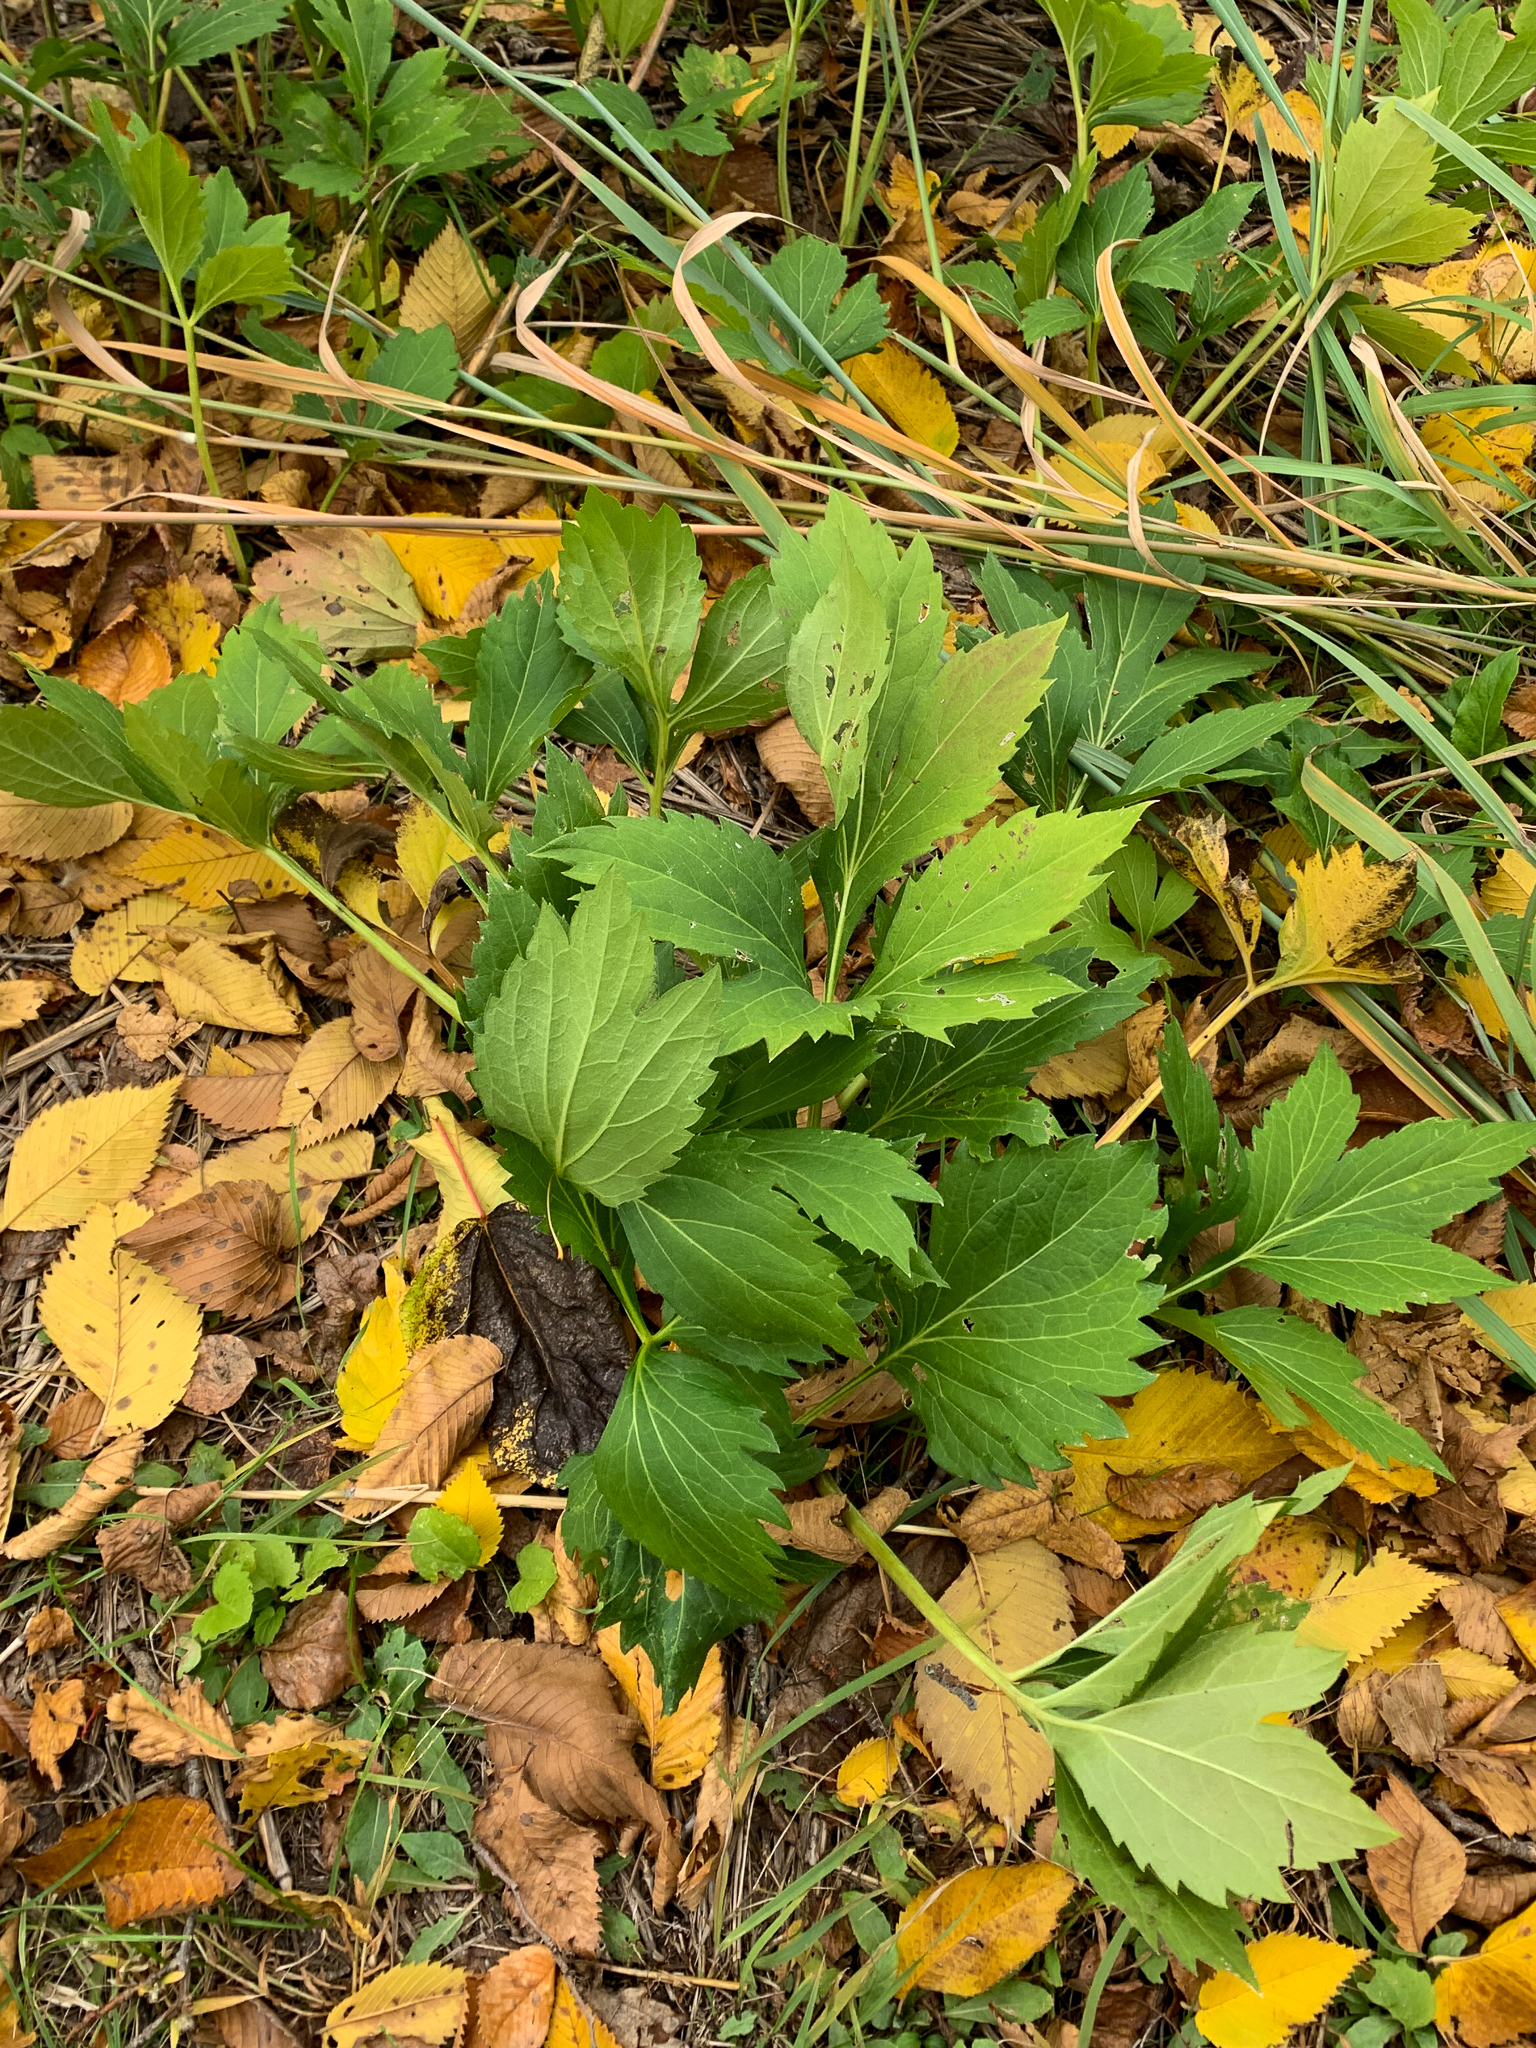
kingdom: Plantae
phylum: Tracheophyta
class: Magnoliopsida
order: Asterales
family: Asteraceae
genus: Rudbeckia
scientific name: Rudbeckia laciniata
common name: Coneflower
